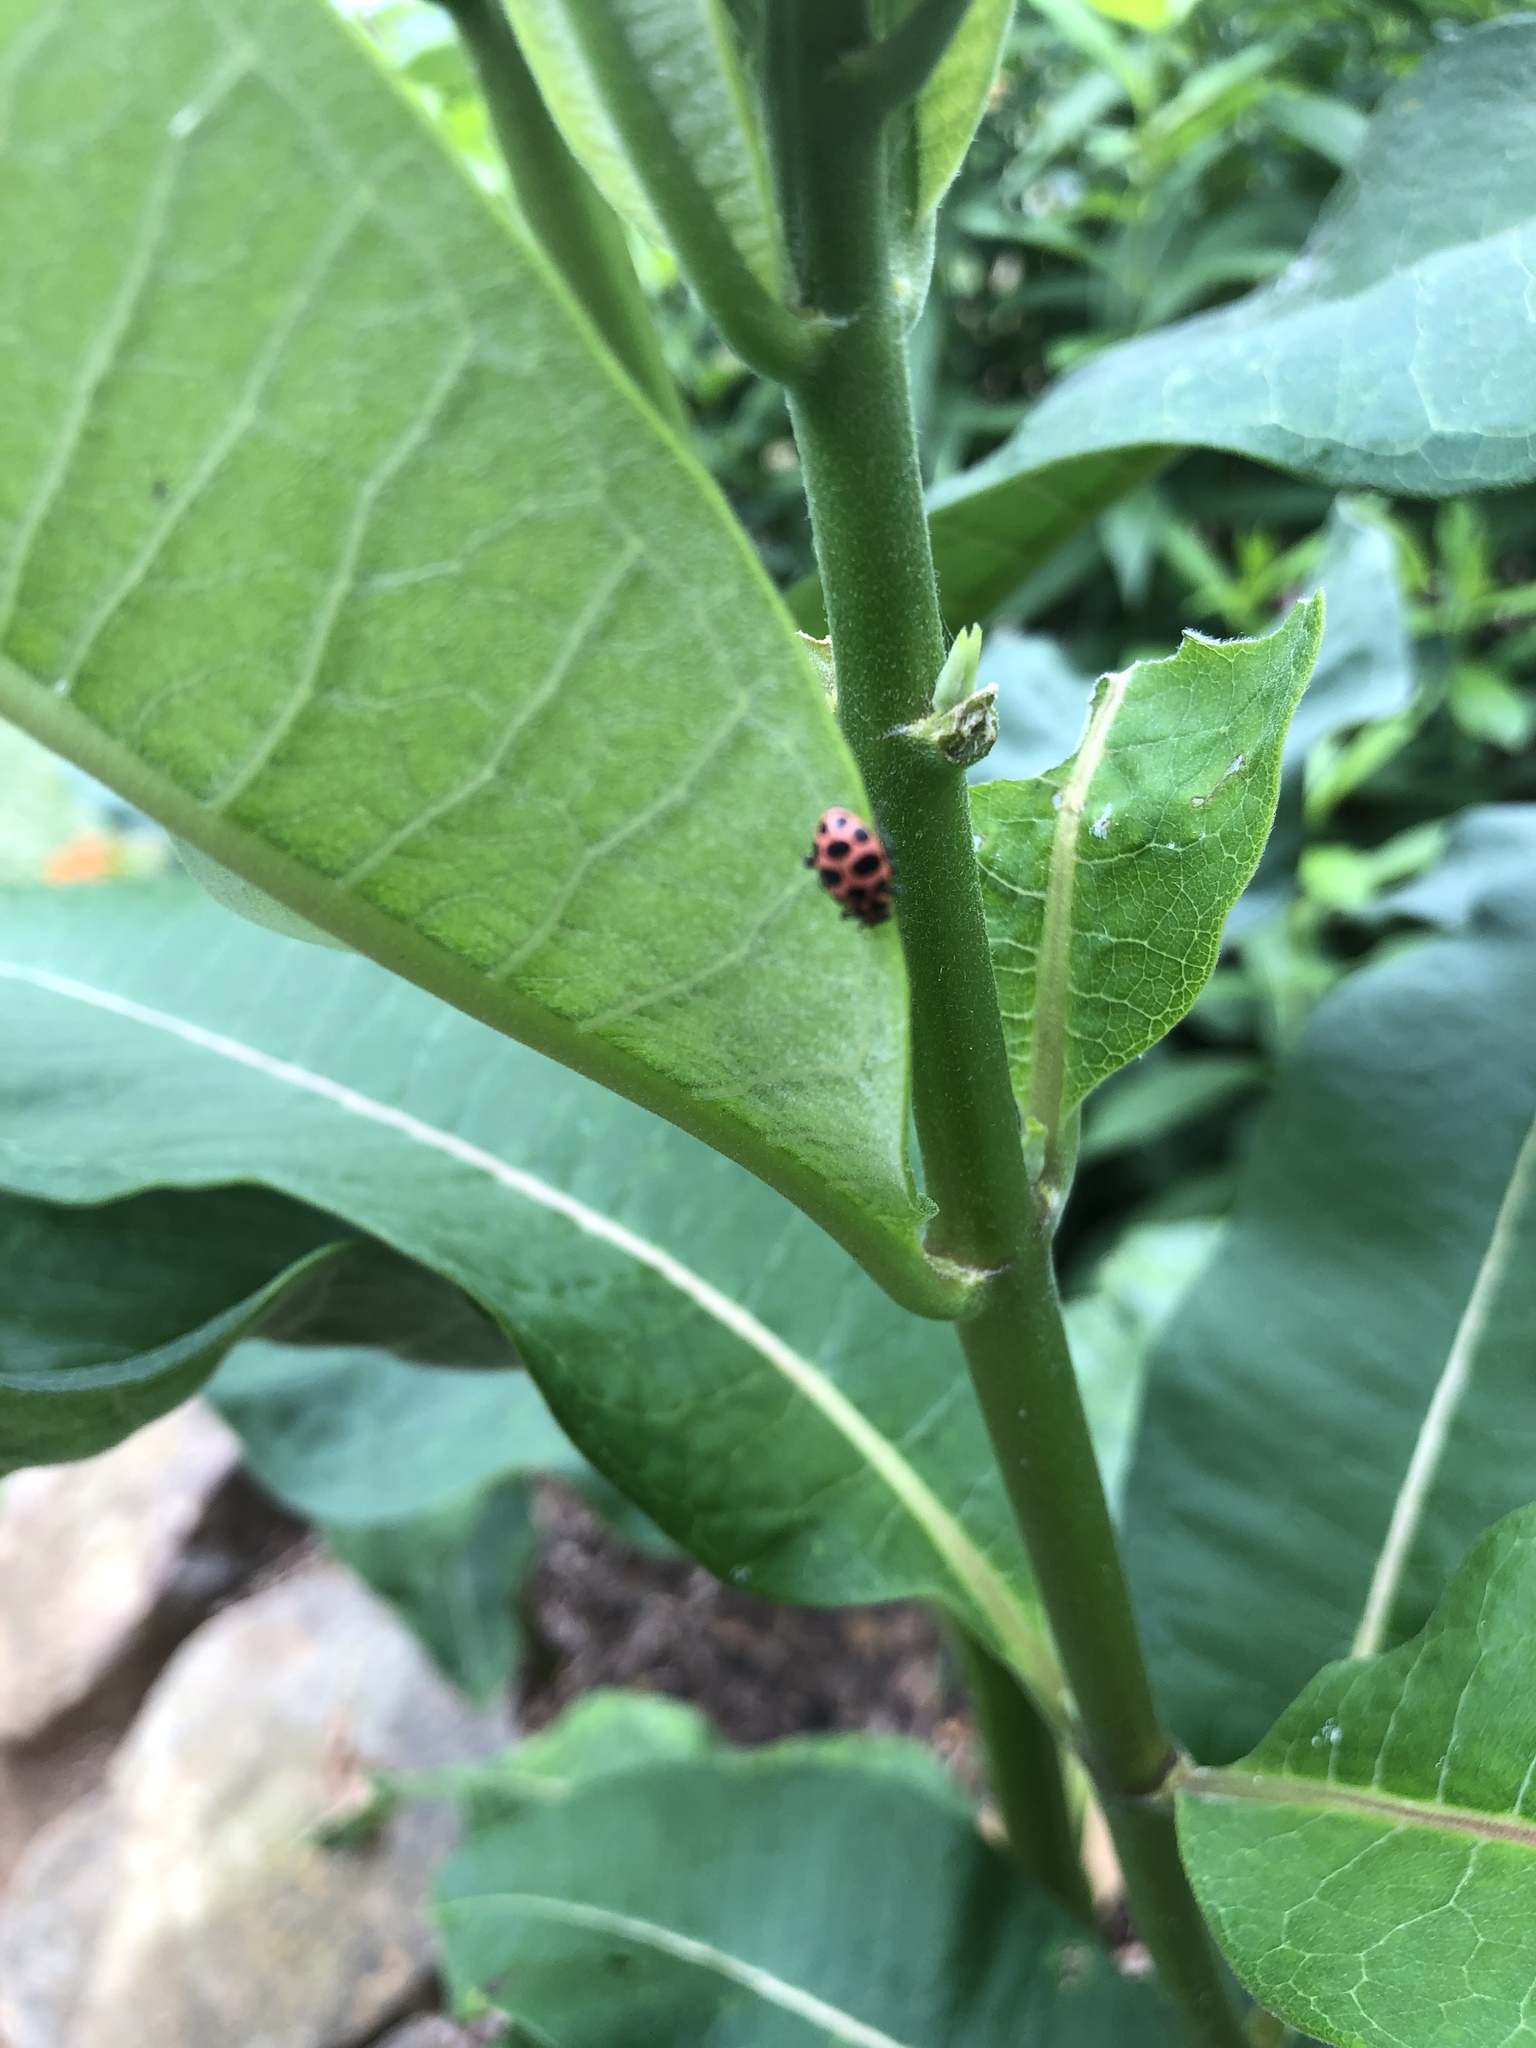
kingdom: Animalia
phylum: Arthropoda
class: Insecta
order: Coleoptera
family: Coccinellidae
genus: Coleomegilla
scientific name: Coleomegilla maculata
